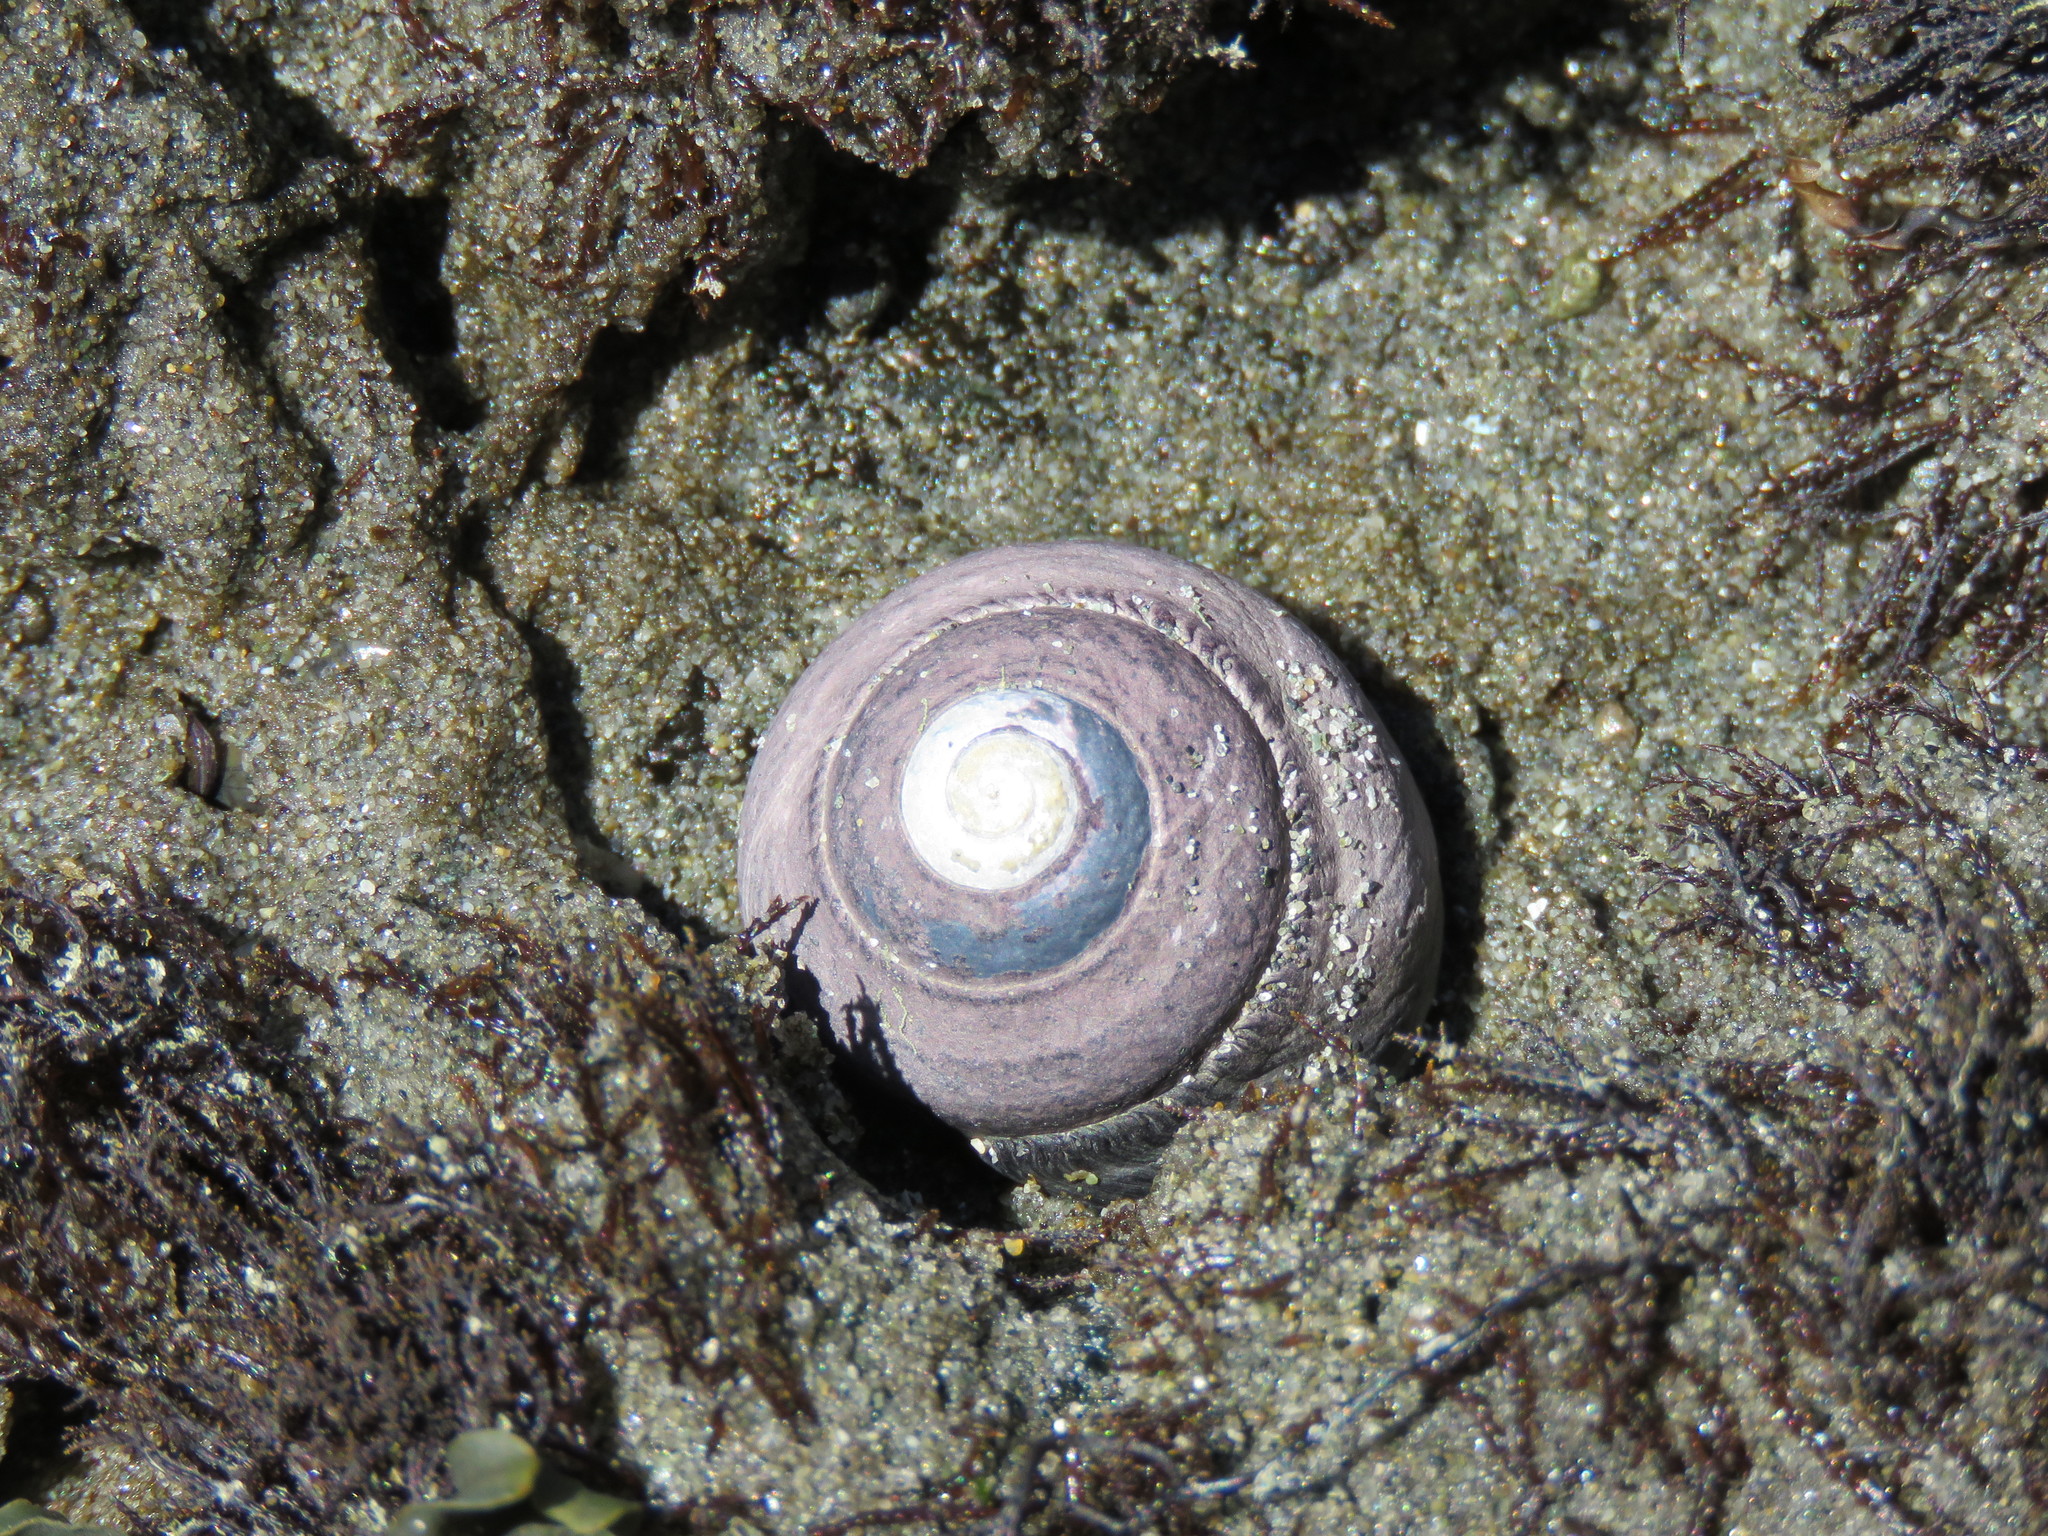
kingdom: Animalia
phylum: Mollusca
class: Gastropoda
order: Trochida
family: Tegulidae
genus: Tegula
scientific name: Tegula funebralis
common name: Black tegula
